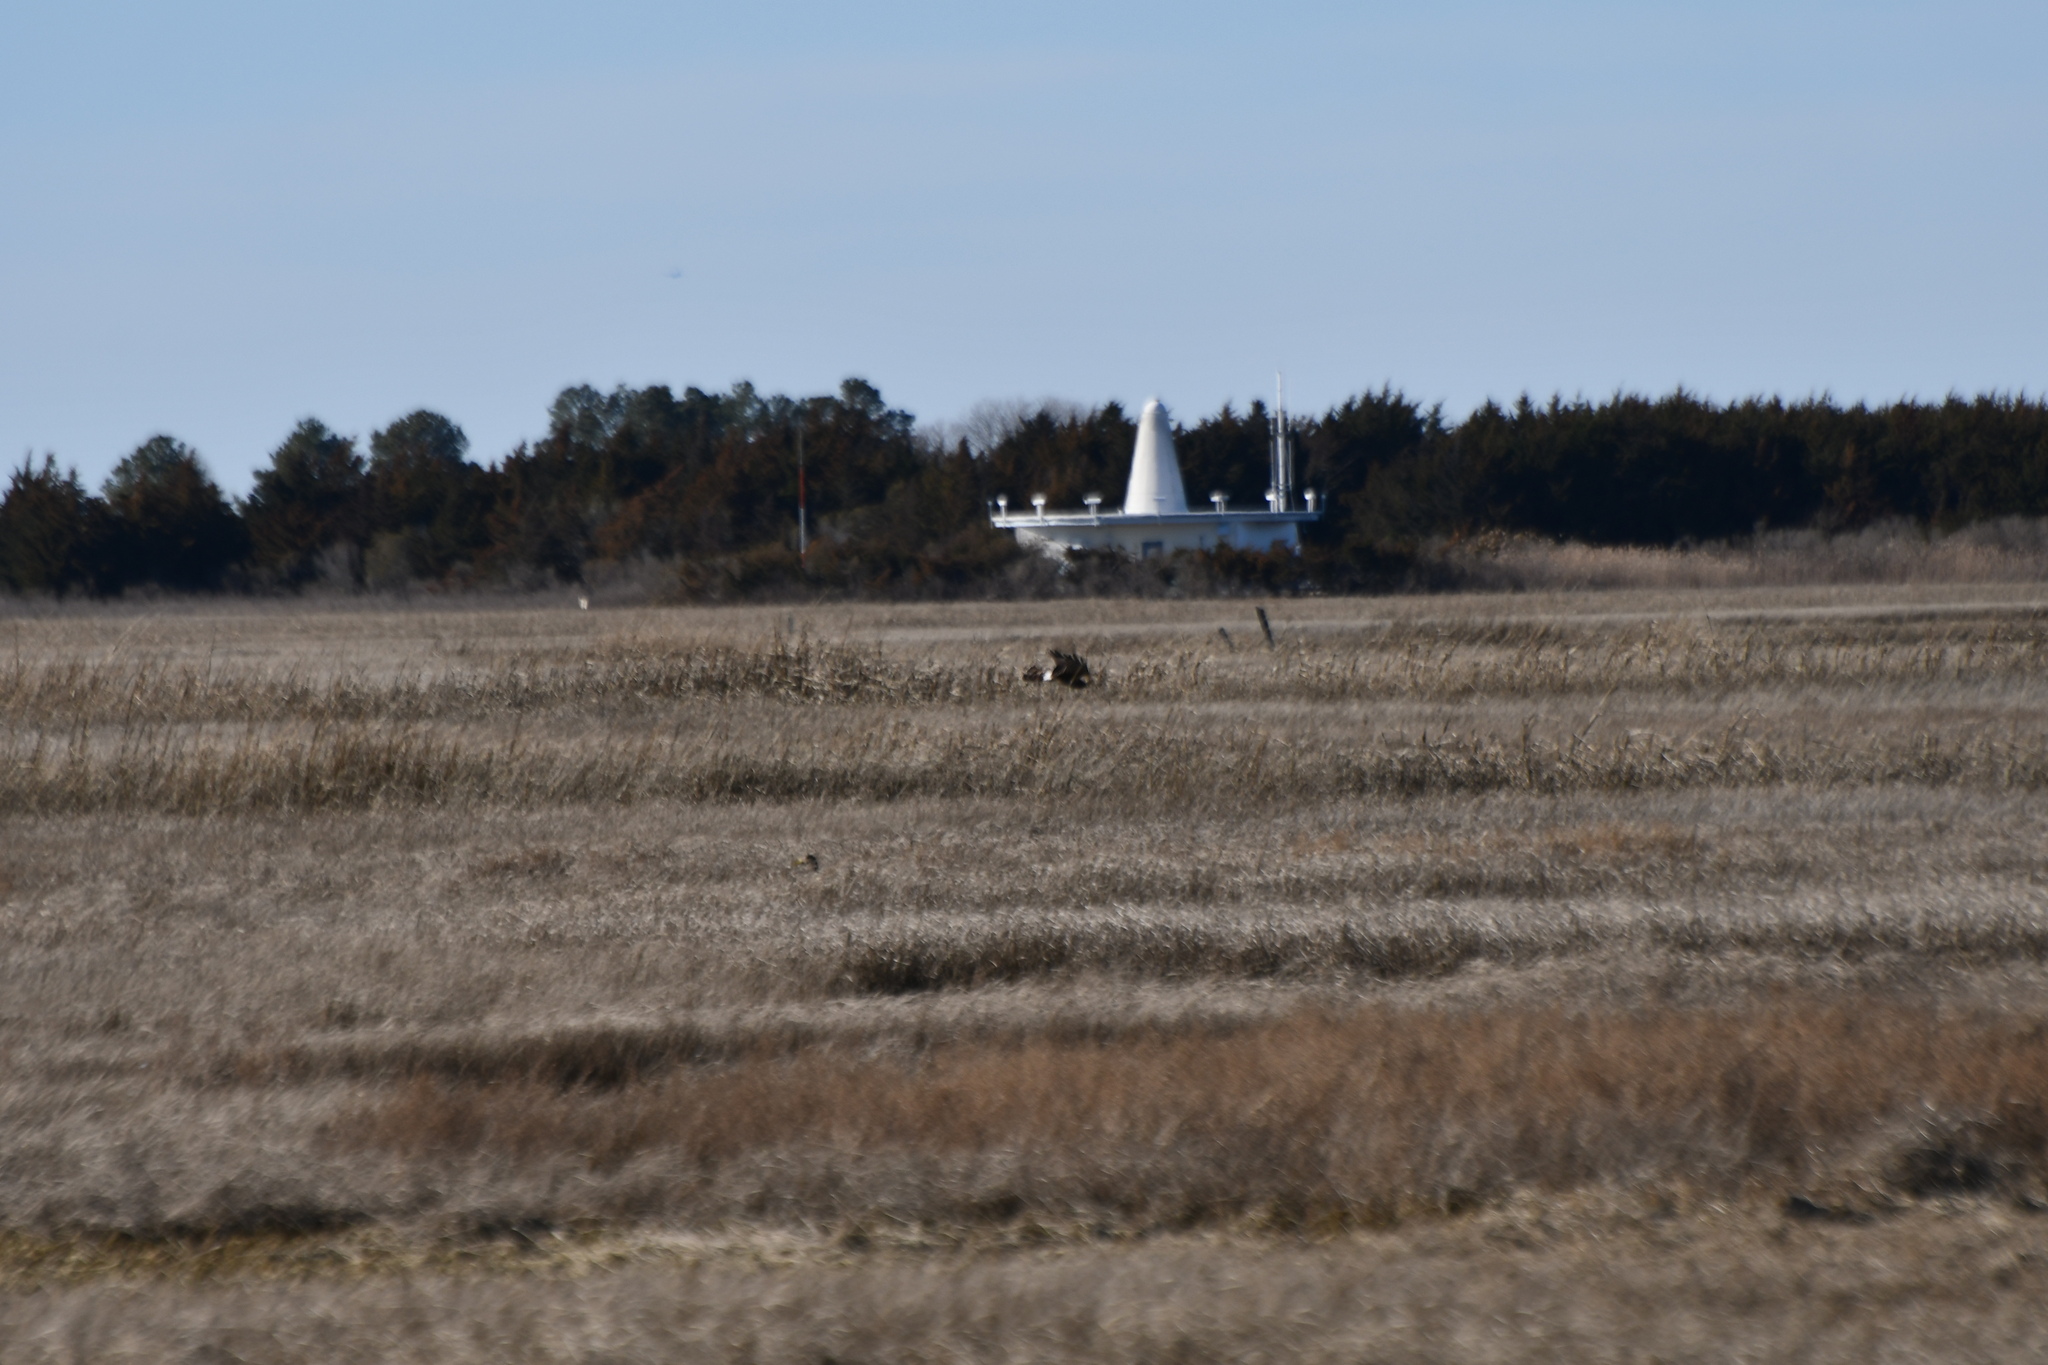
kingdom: Animalia
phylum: Chordata
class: Aves
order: Accipitriformes
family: Accipitridae
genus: Circus
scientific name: Circus cyaneus
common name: Hen harrier
